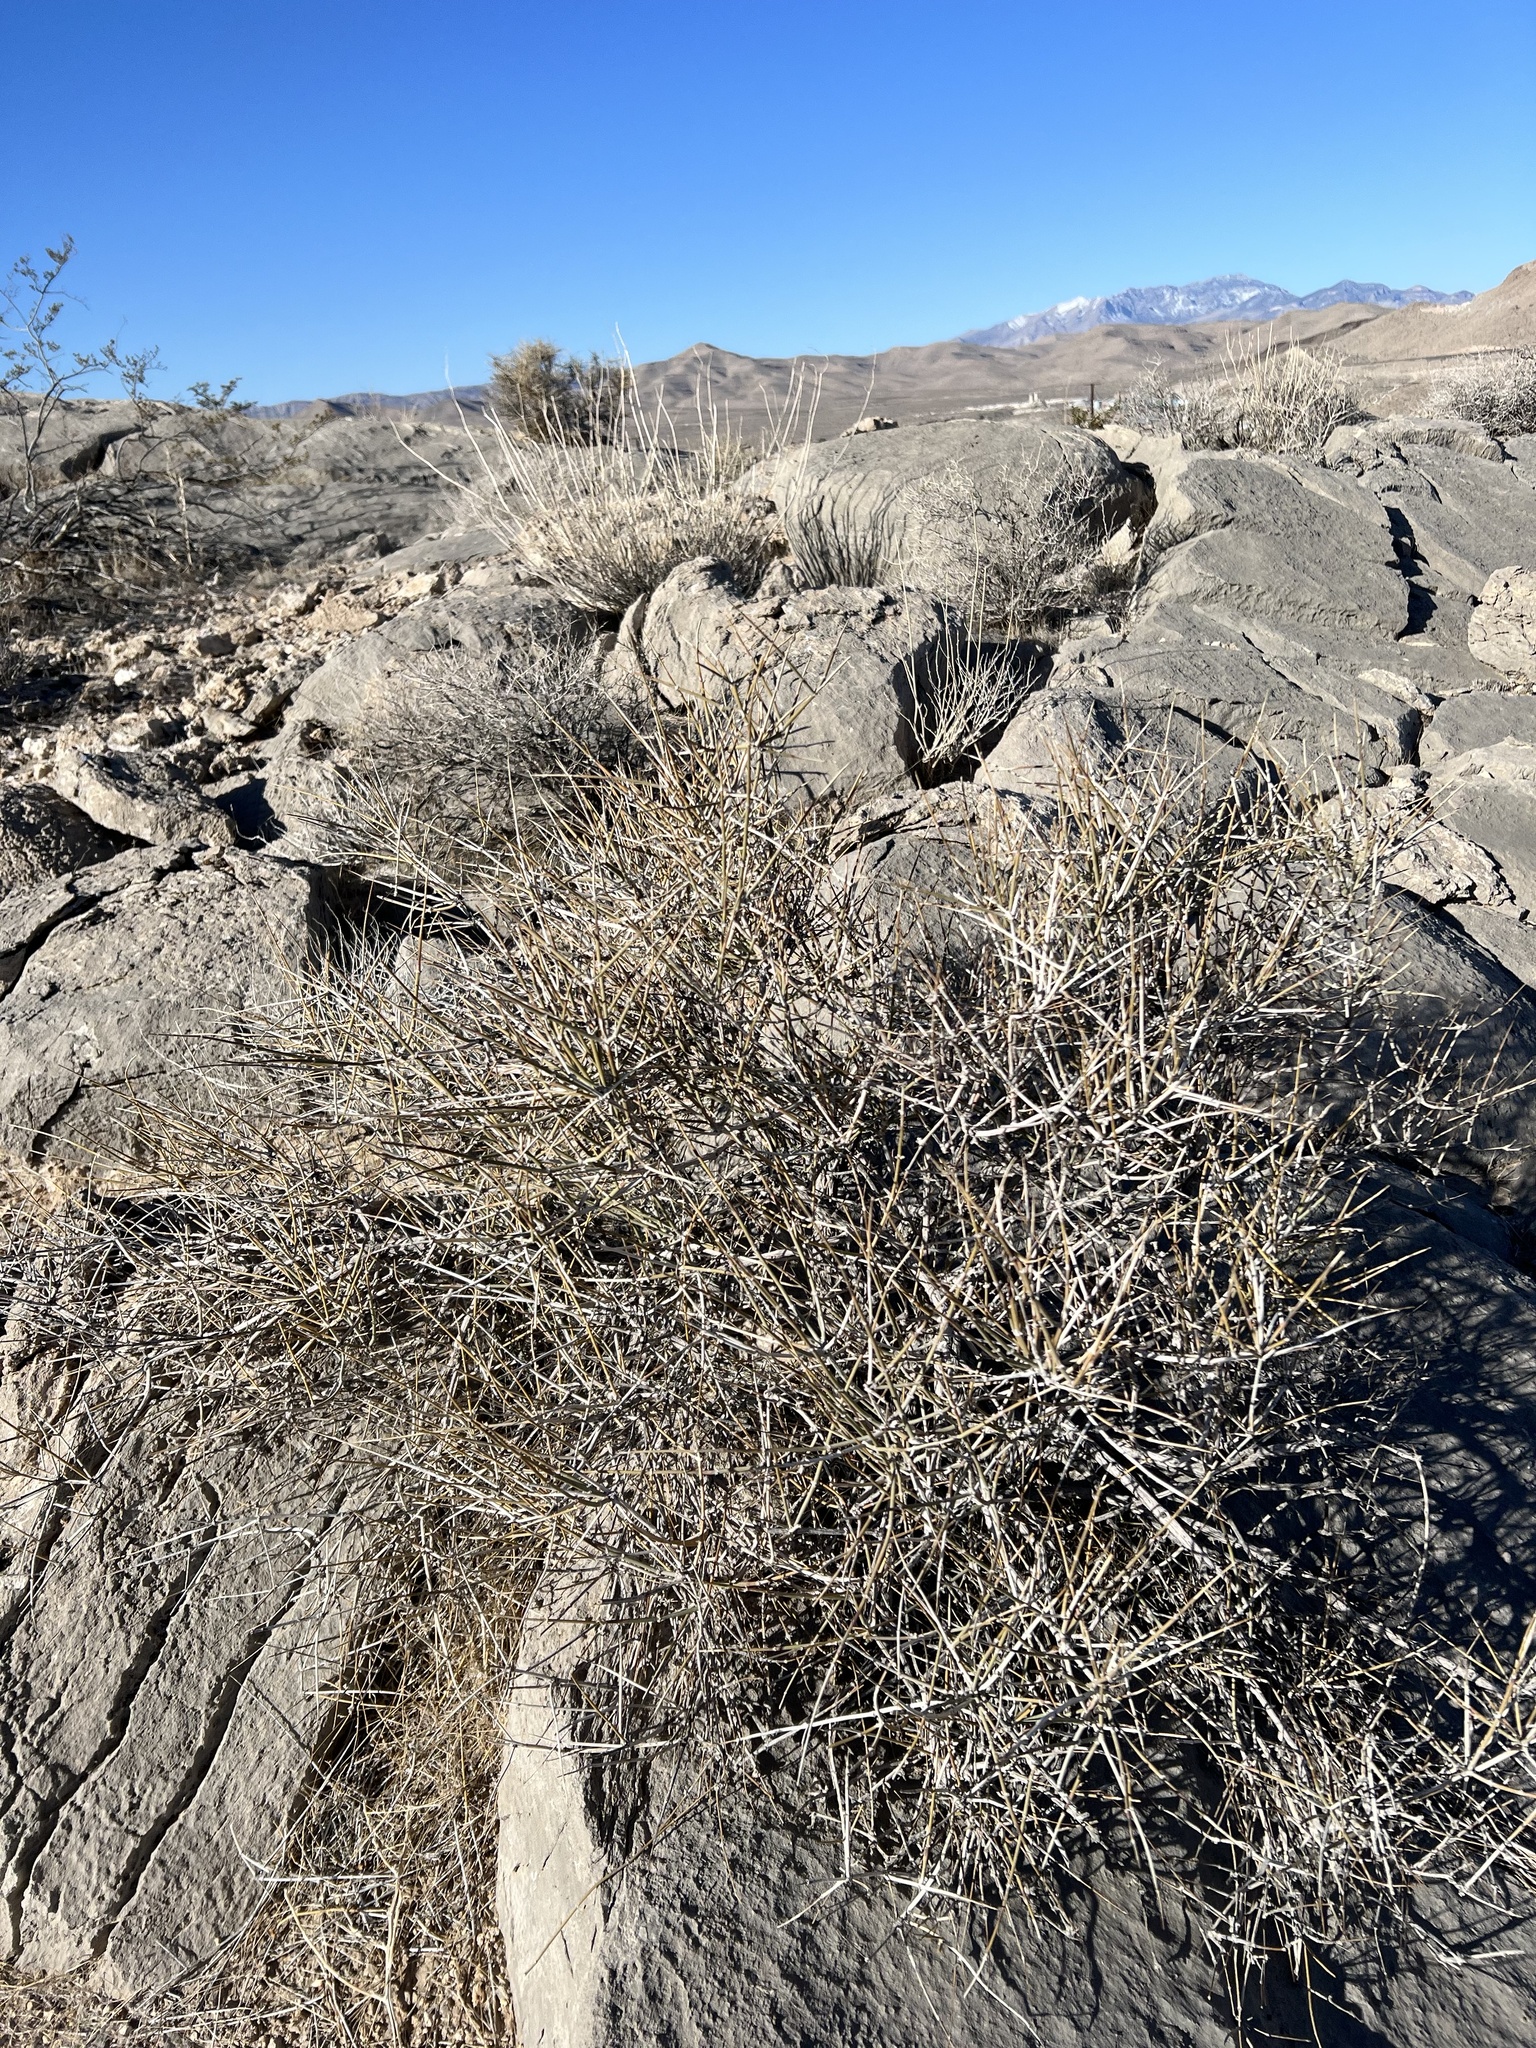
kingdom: Plantae
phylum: Tracheophyta
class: Gnetopsida
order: Ephedrales
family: Ephedraceae
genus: Ephedra
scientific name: Ephedra nevadensis
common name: Gray ephedra
